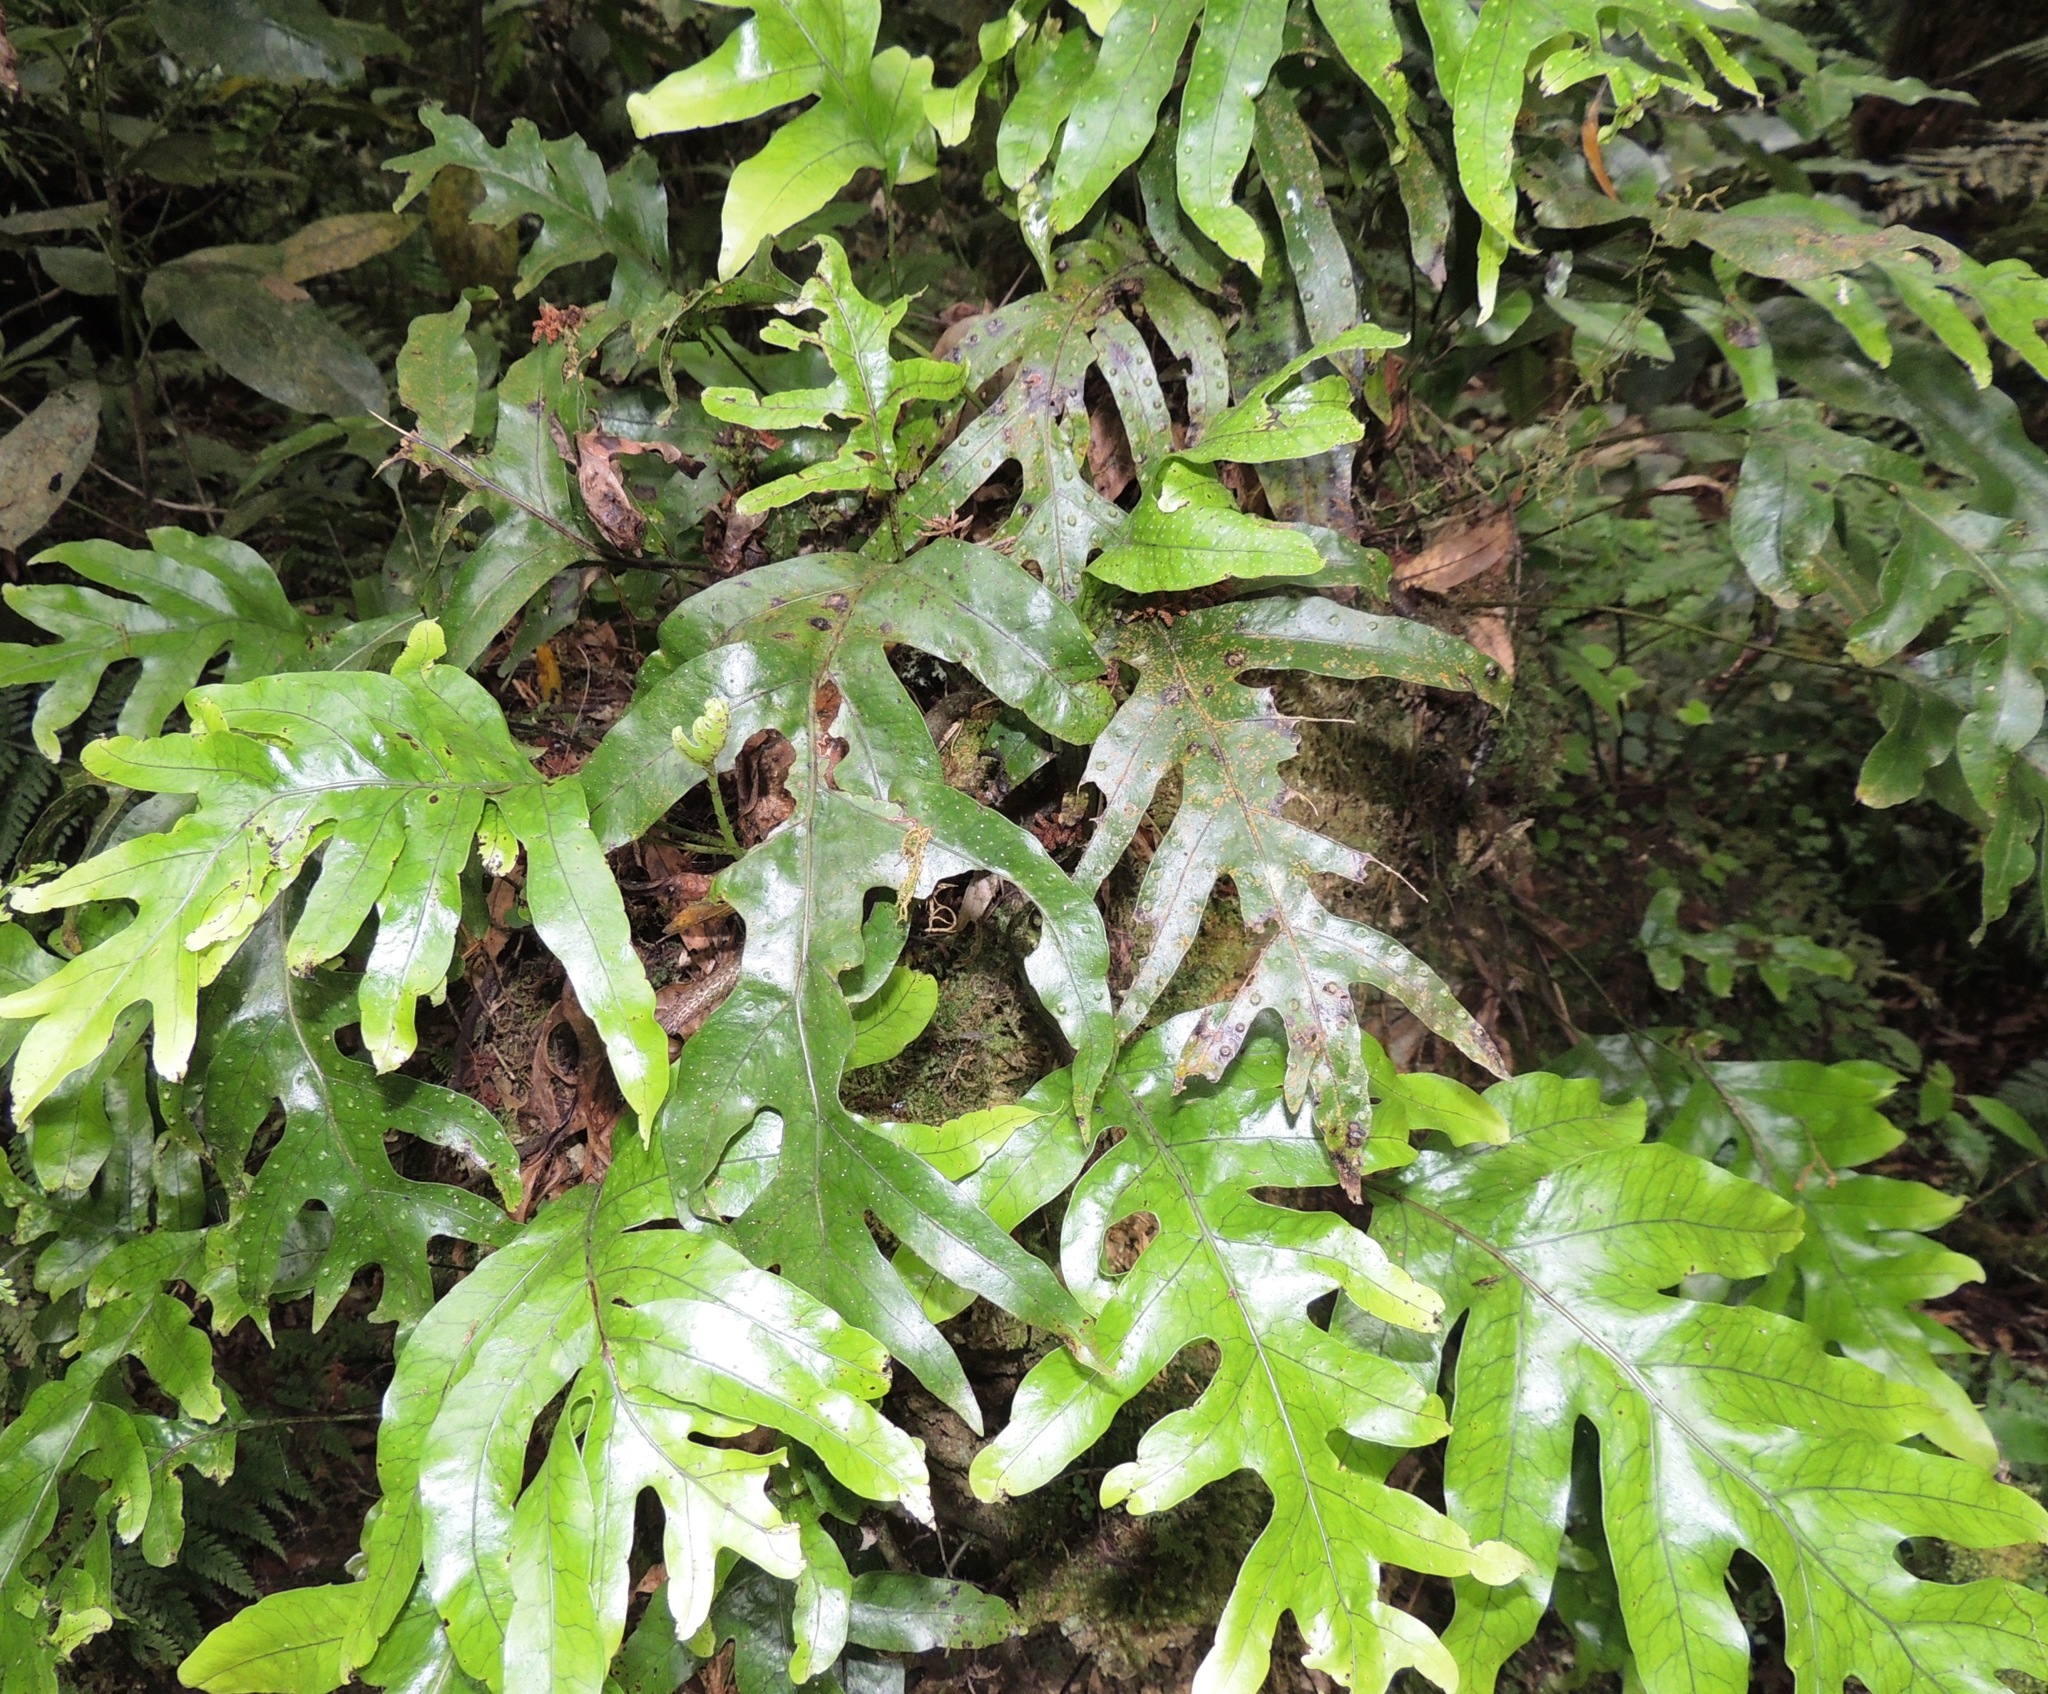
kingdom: Plantae
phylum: Tracheophyta
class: Polypodiopsida
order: Polypodiales
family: Polypodiaceae
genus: Lecanopteris
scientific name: Lecanopteris pustulata
